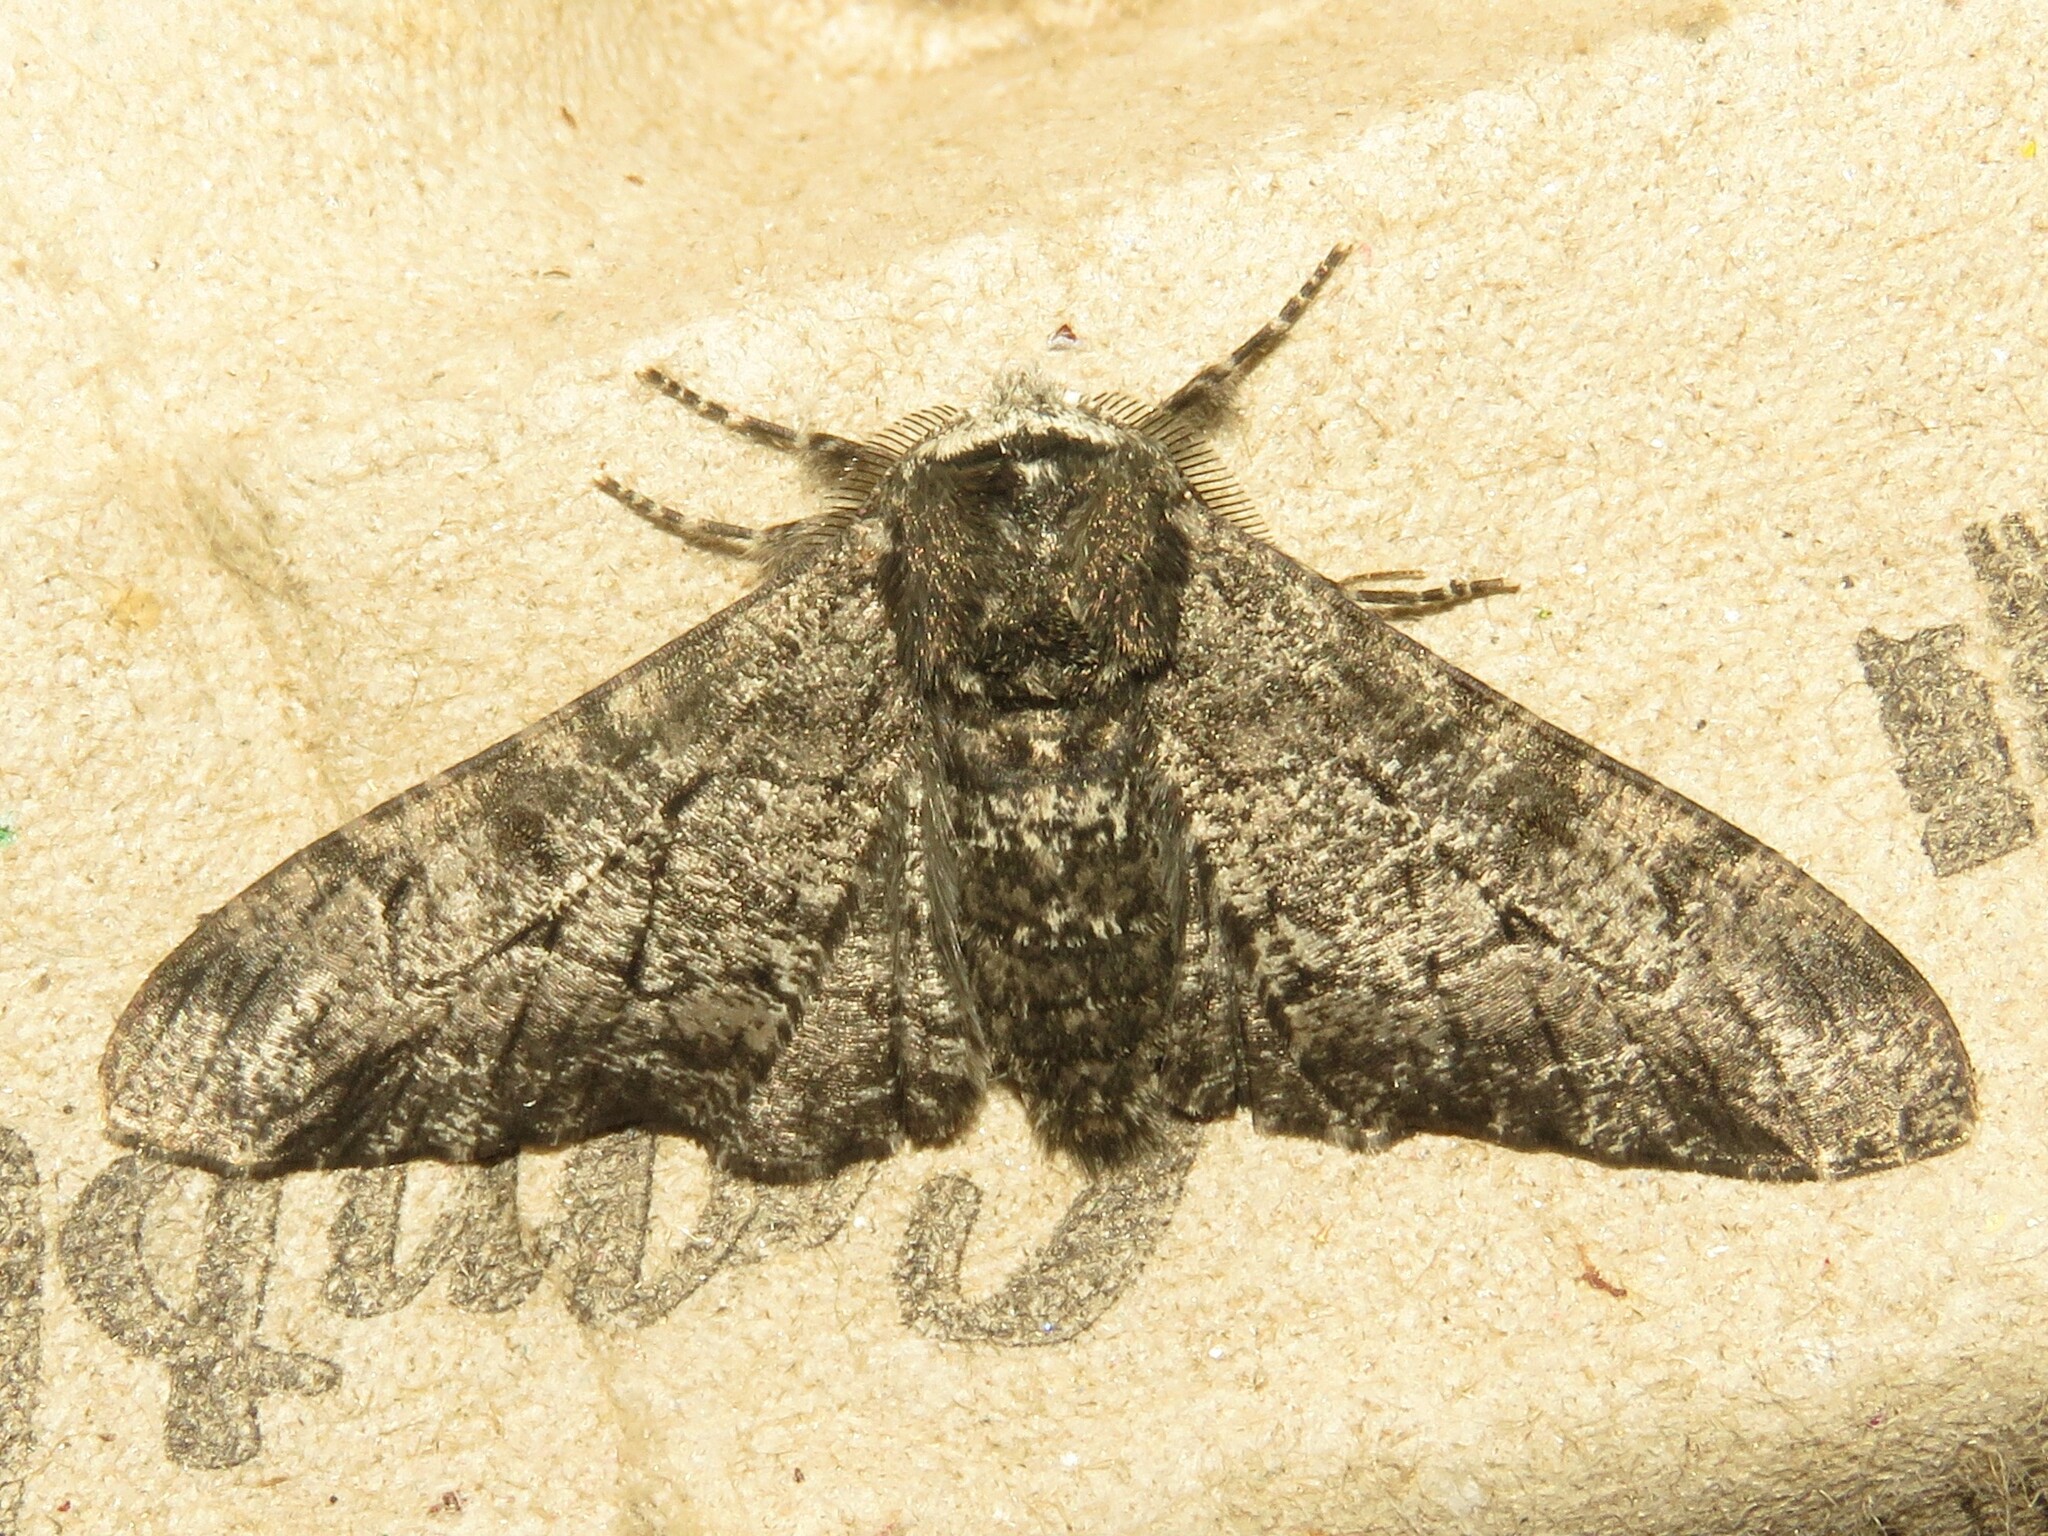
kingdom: Animalia
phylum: Arthropoda
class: Insecta
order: Lepidoptera
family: Geometridae
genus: Biston
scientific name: Biston betularia
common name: Peppered moth
